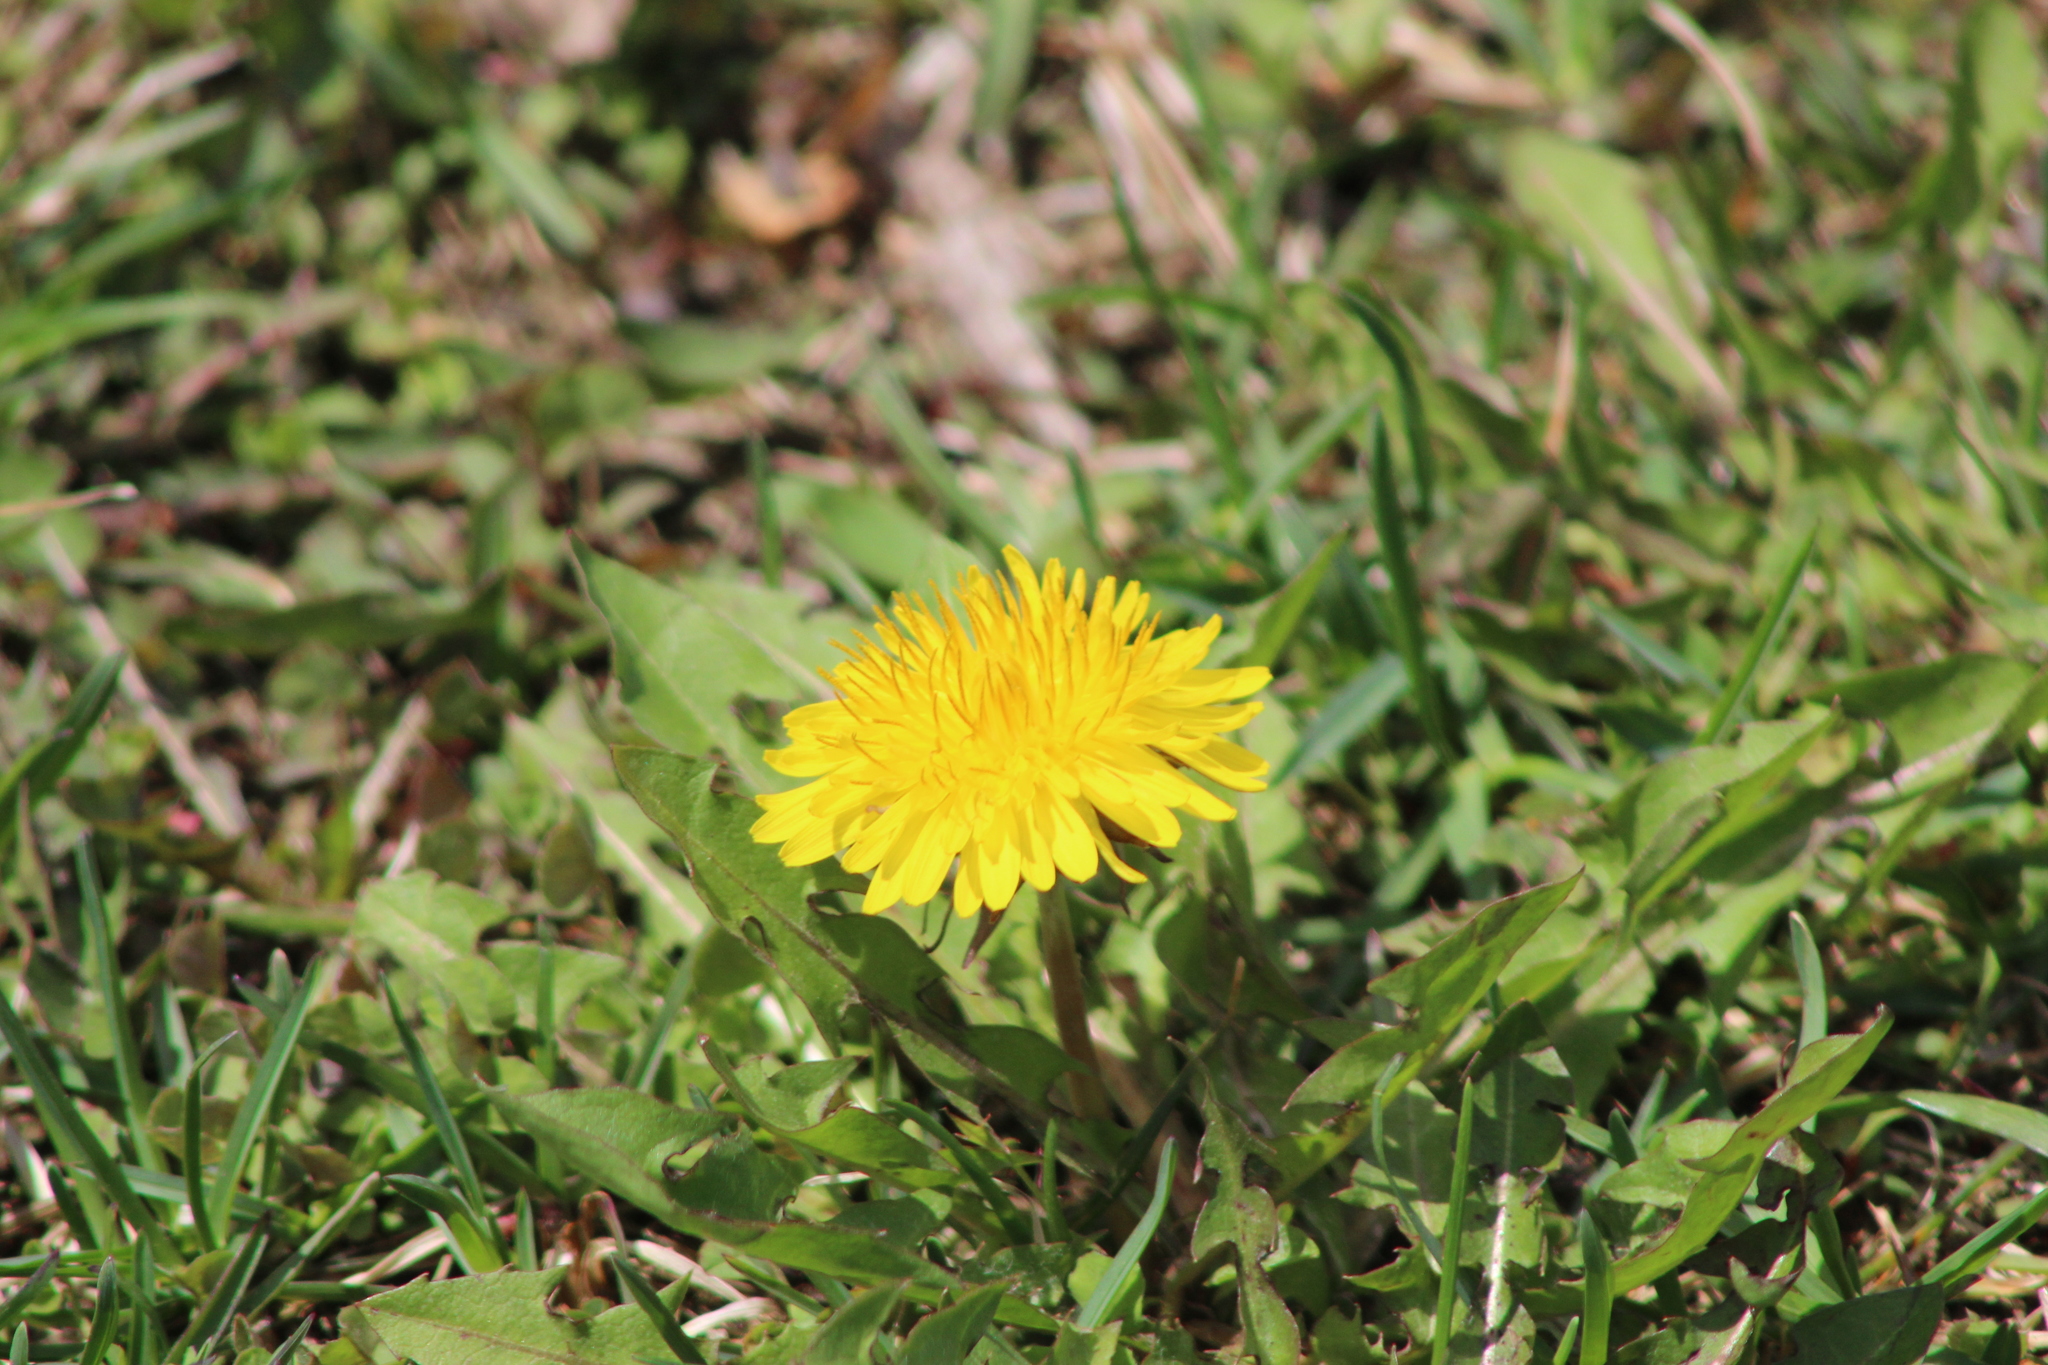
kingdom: Plantae
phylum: Tracheophyta
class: Magnoliopsida
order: Asterales
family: Asteraceae
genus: Taraxacum
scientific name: Taraxacum officinale
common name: Common dandelion
